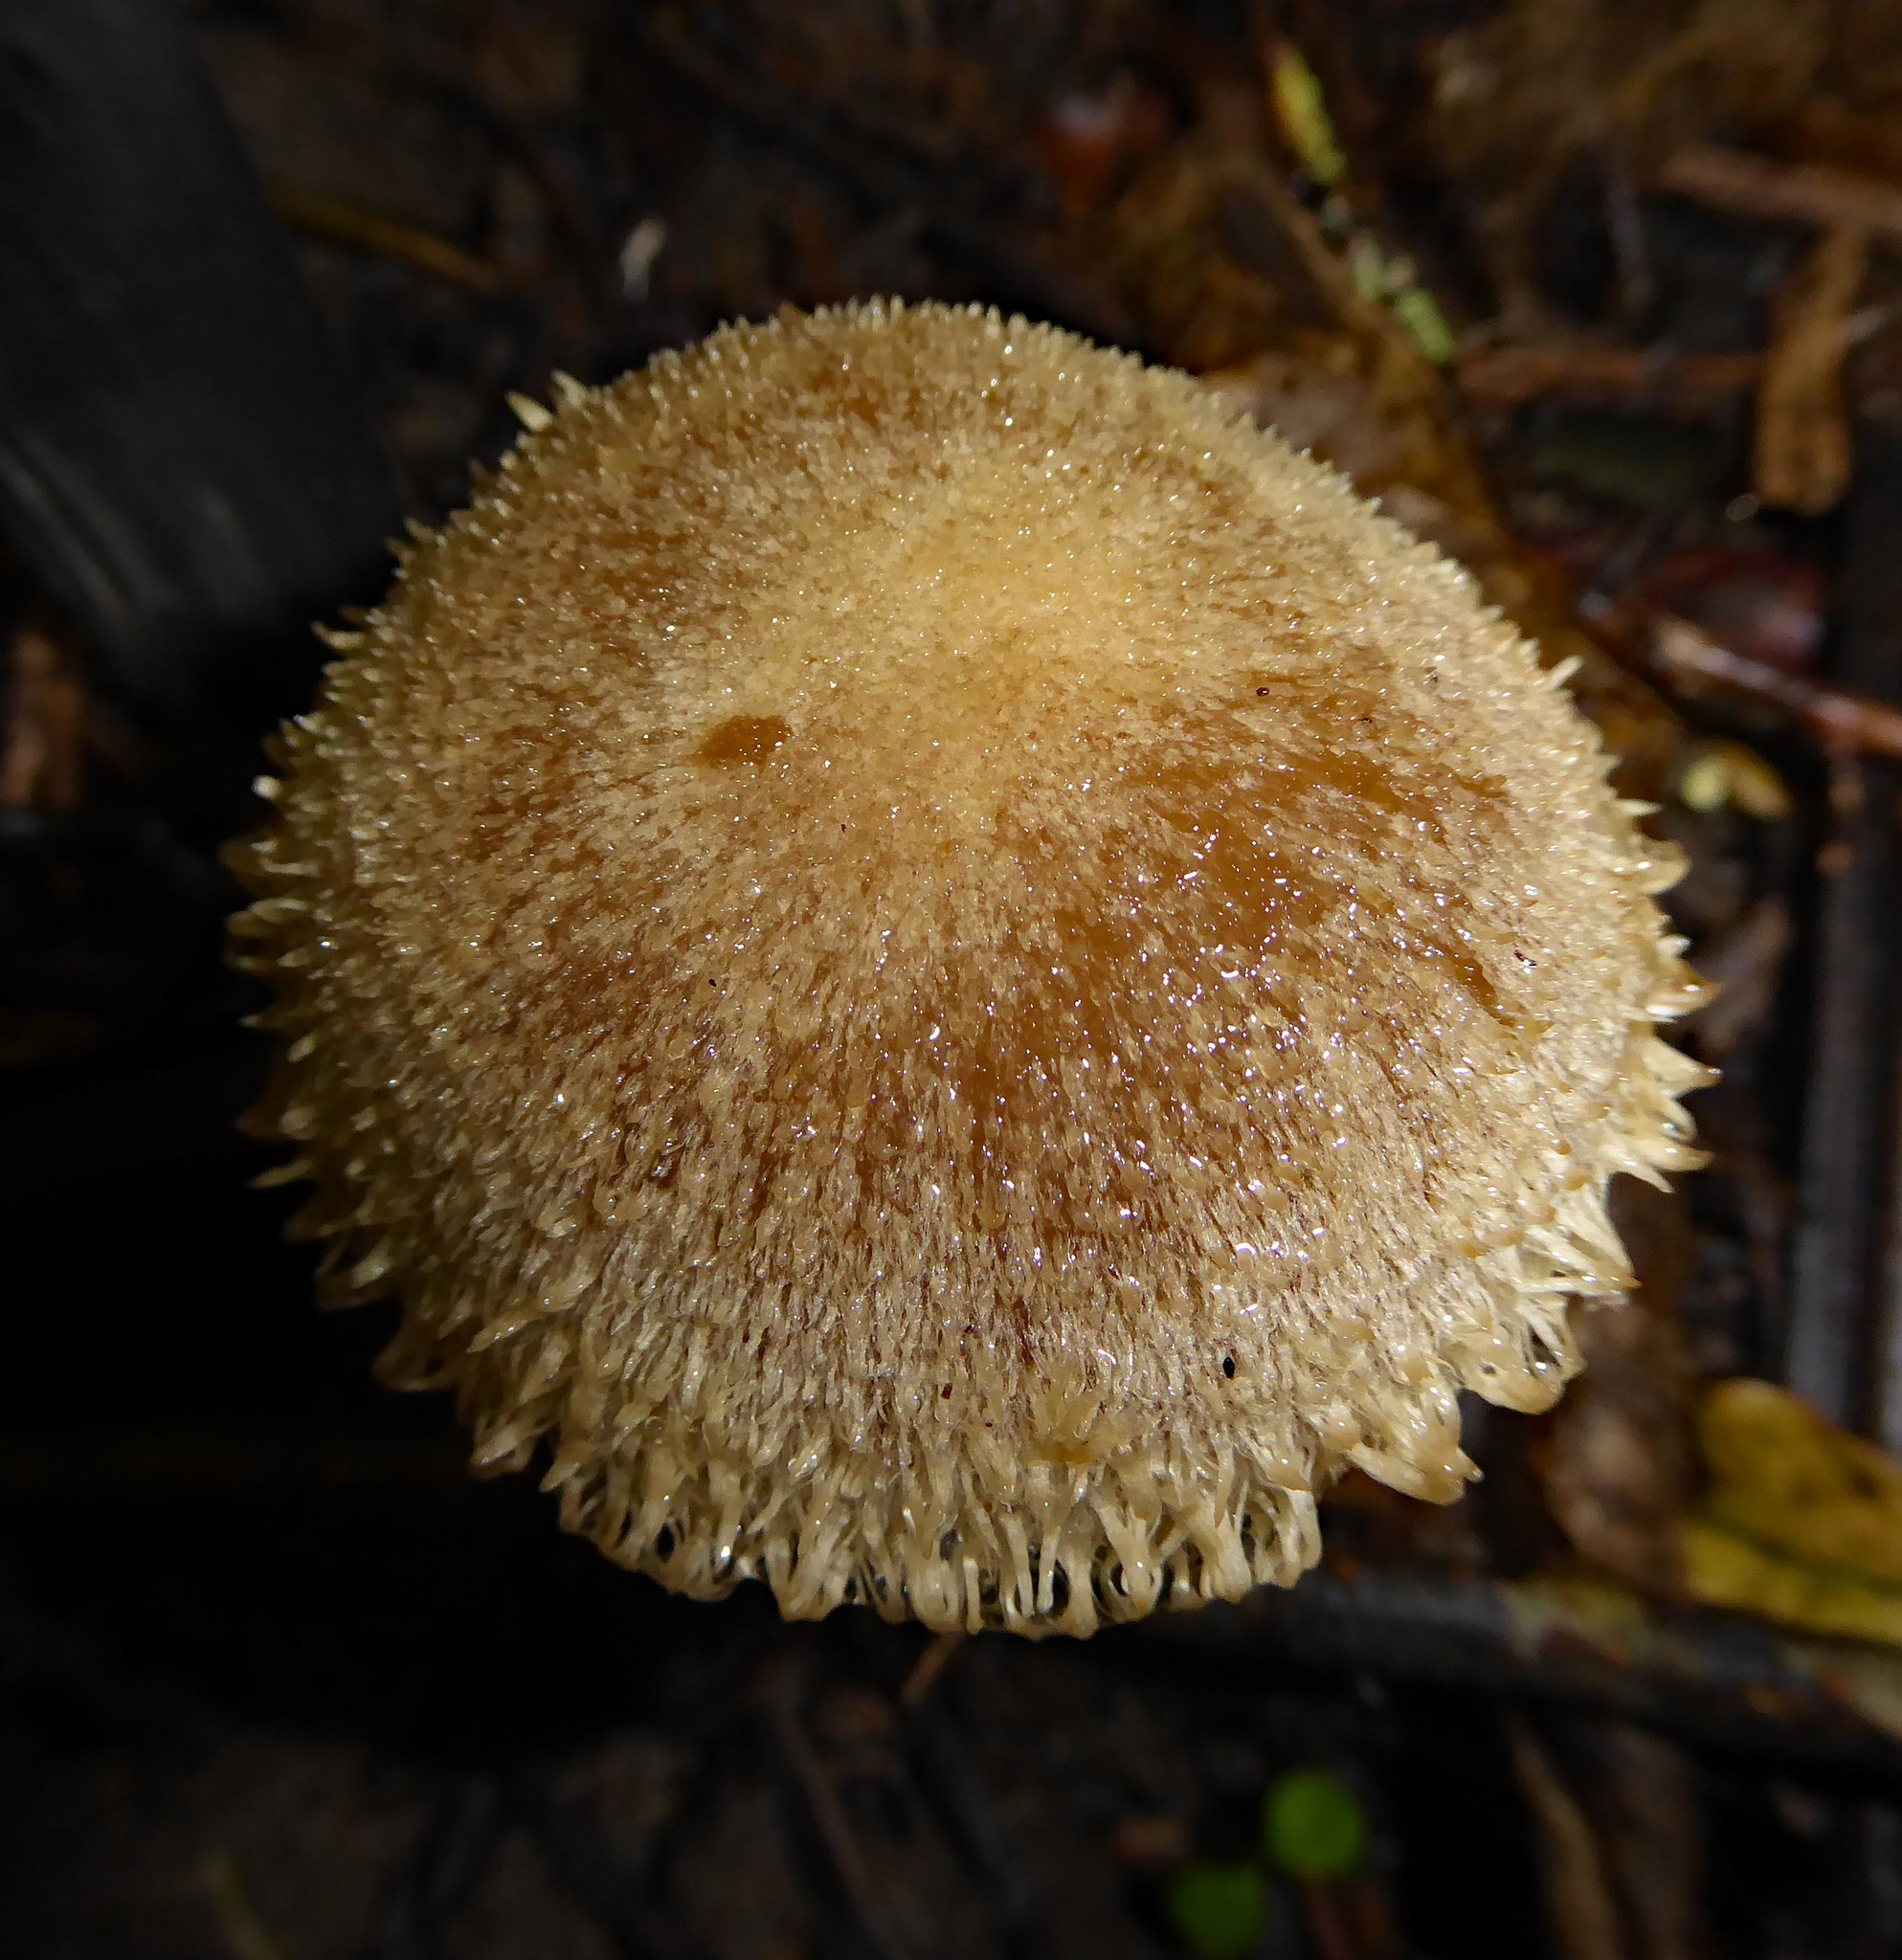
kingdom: Fungi
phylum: Basidiomycota
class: Agaricomycetes
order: Agaricales
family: Psathyrellaceae
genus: Psathyrella
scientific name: Psathyrella asperospora
